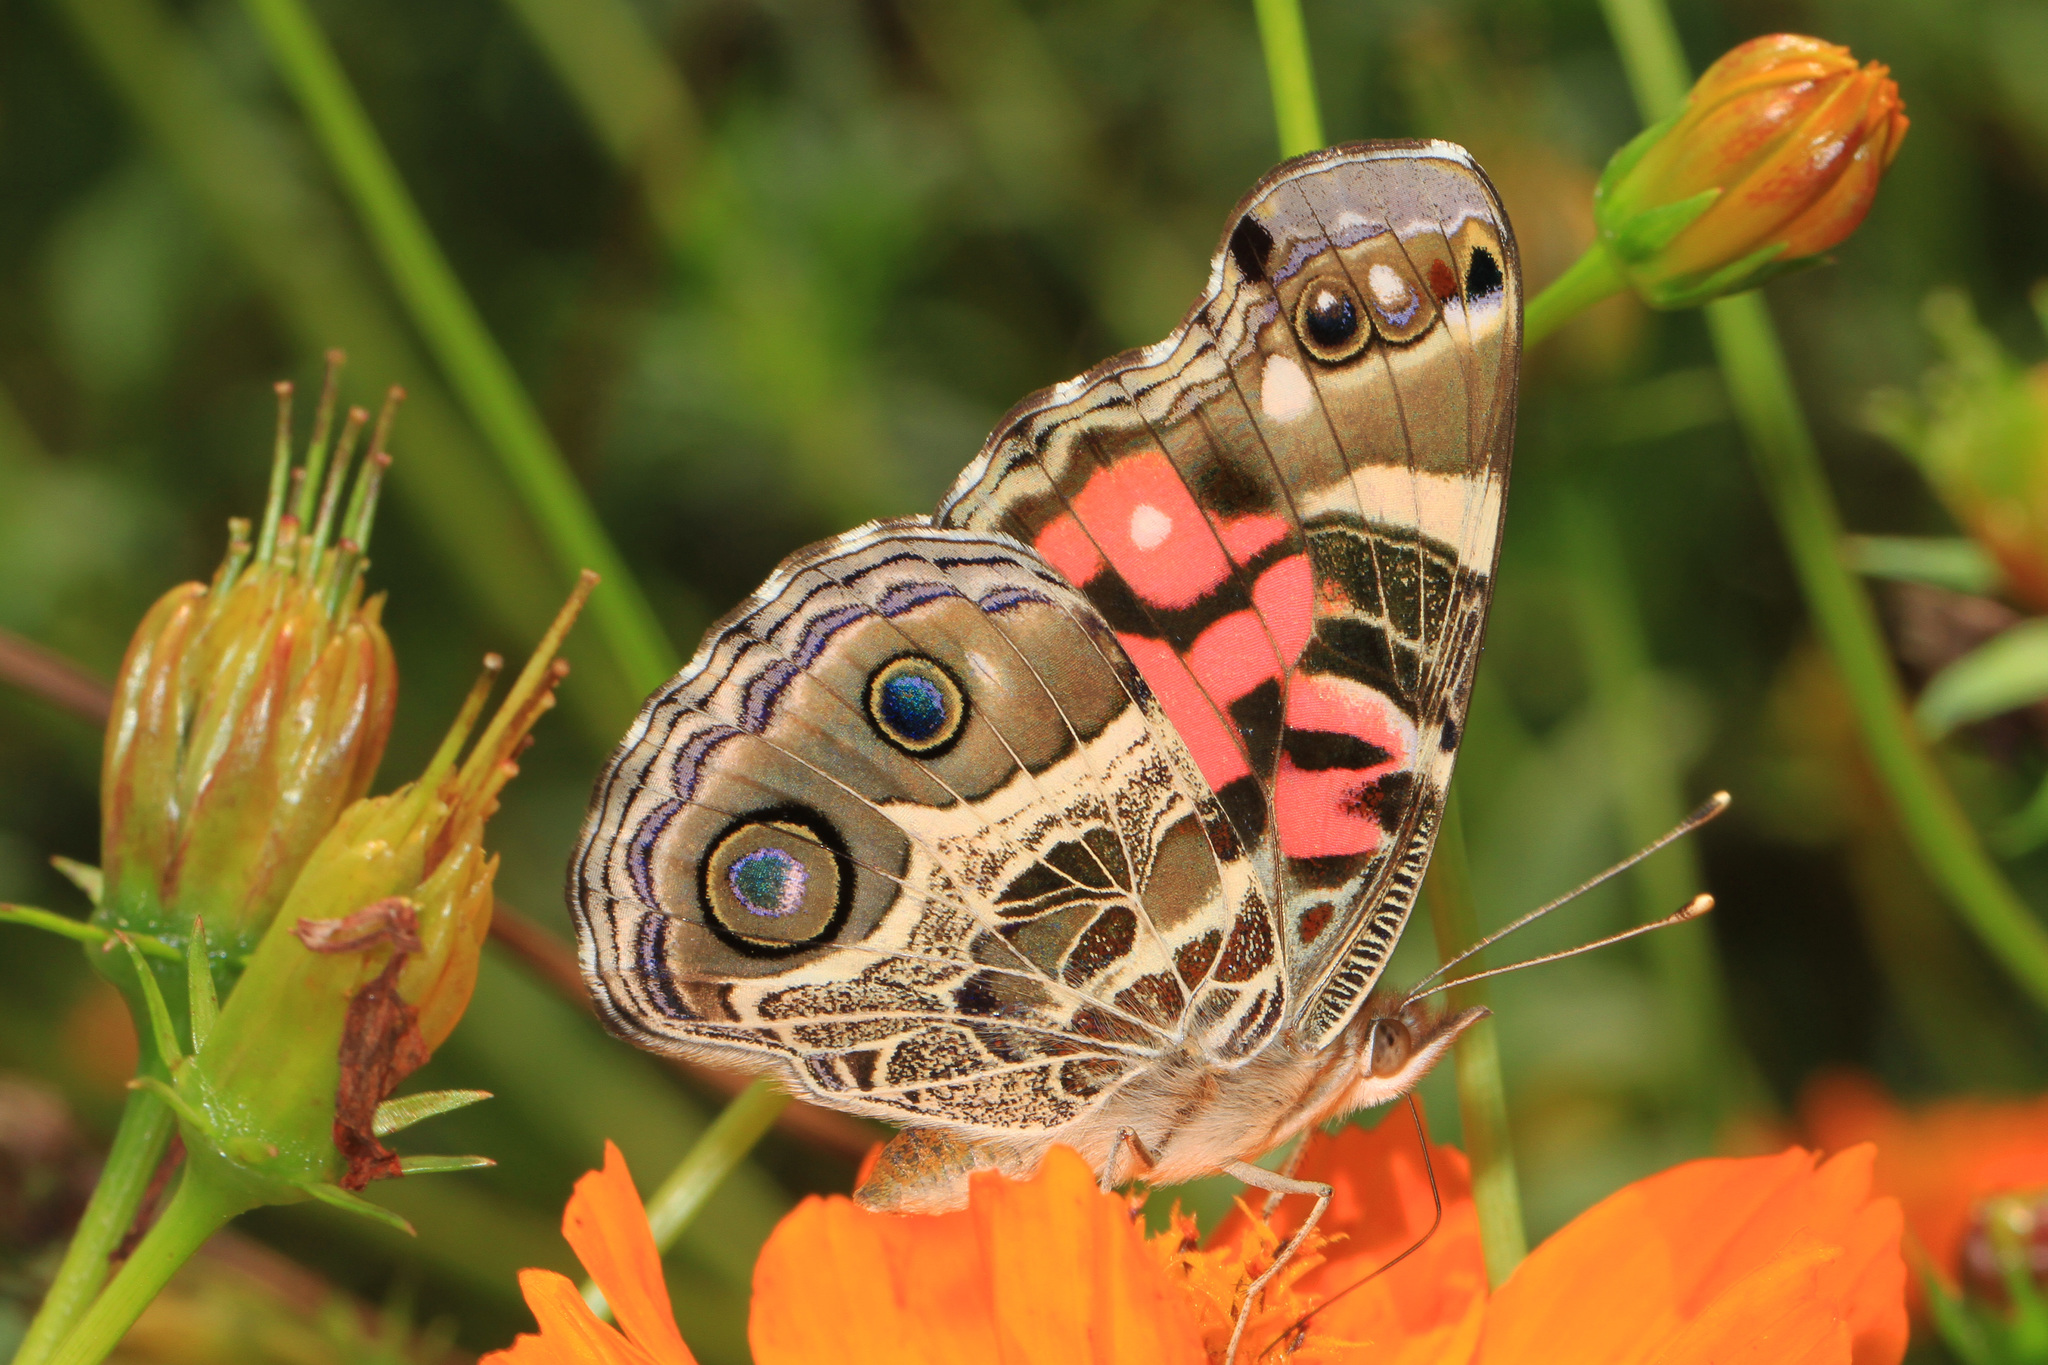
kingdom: Animalia
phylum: Arthropoda
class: Insecta
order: Lepidoptera
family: Nymphalidae
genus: Vanessa
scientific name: Vanessa virginiensis
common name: American lady
